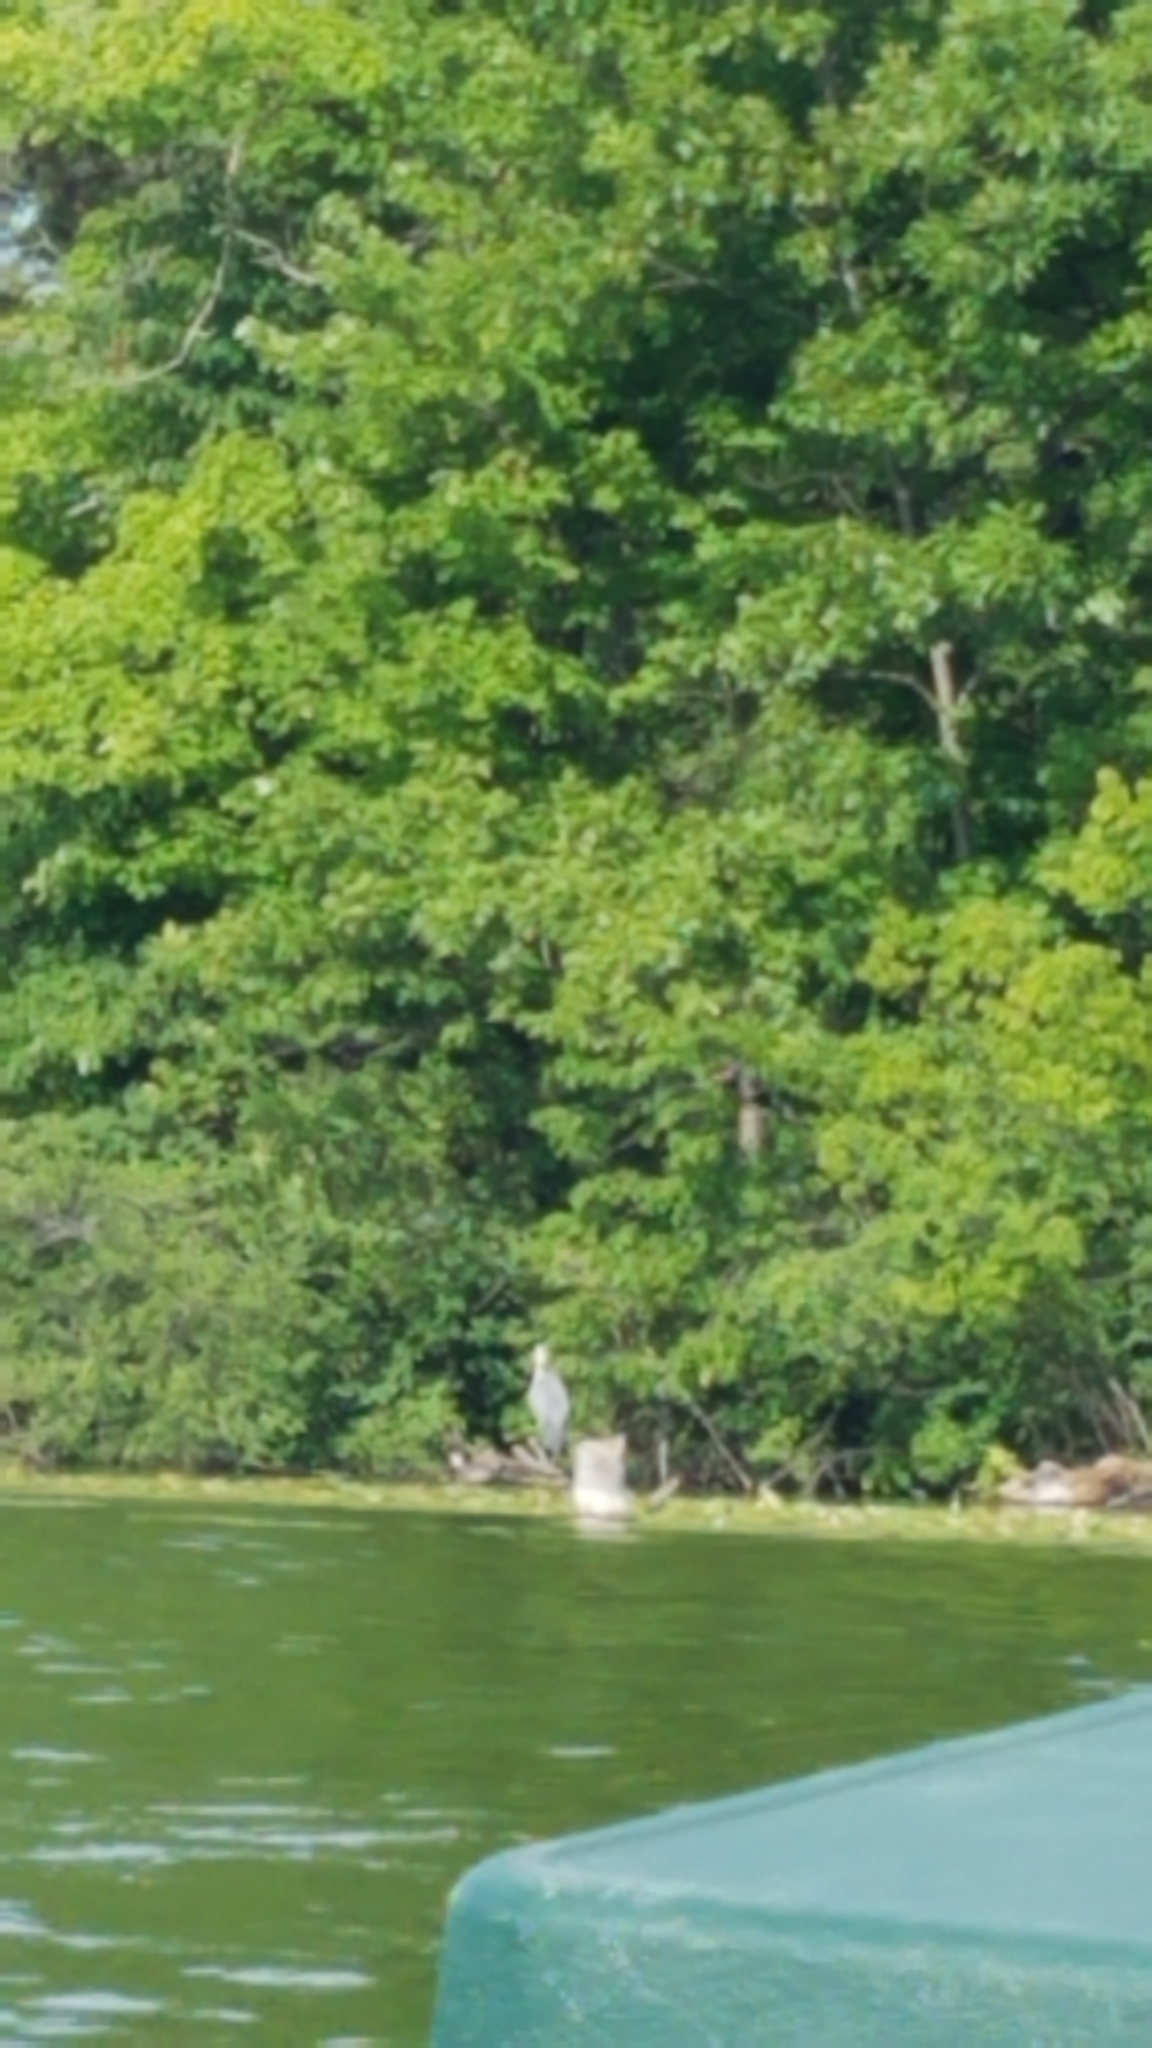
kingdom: Animalia
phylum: Chordata
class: Aves
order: Pelecaniformes
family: Ardeidae
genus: Ardea
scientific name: Ardea herodias
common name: Great blue heron
